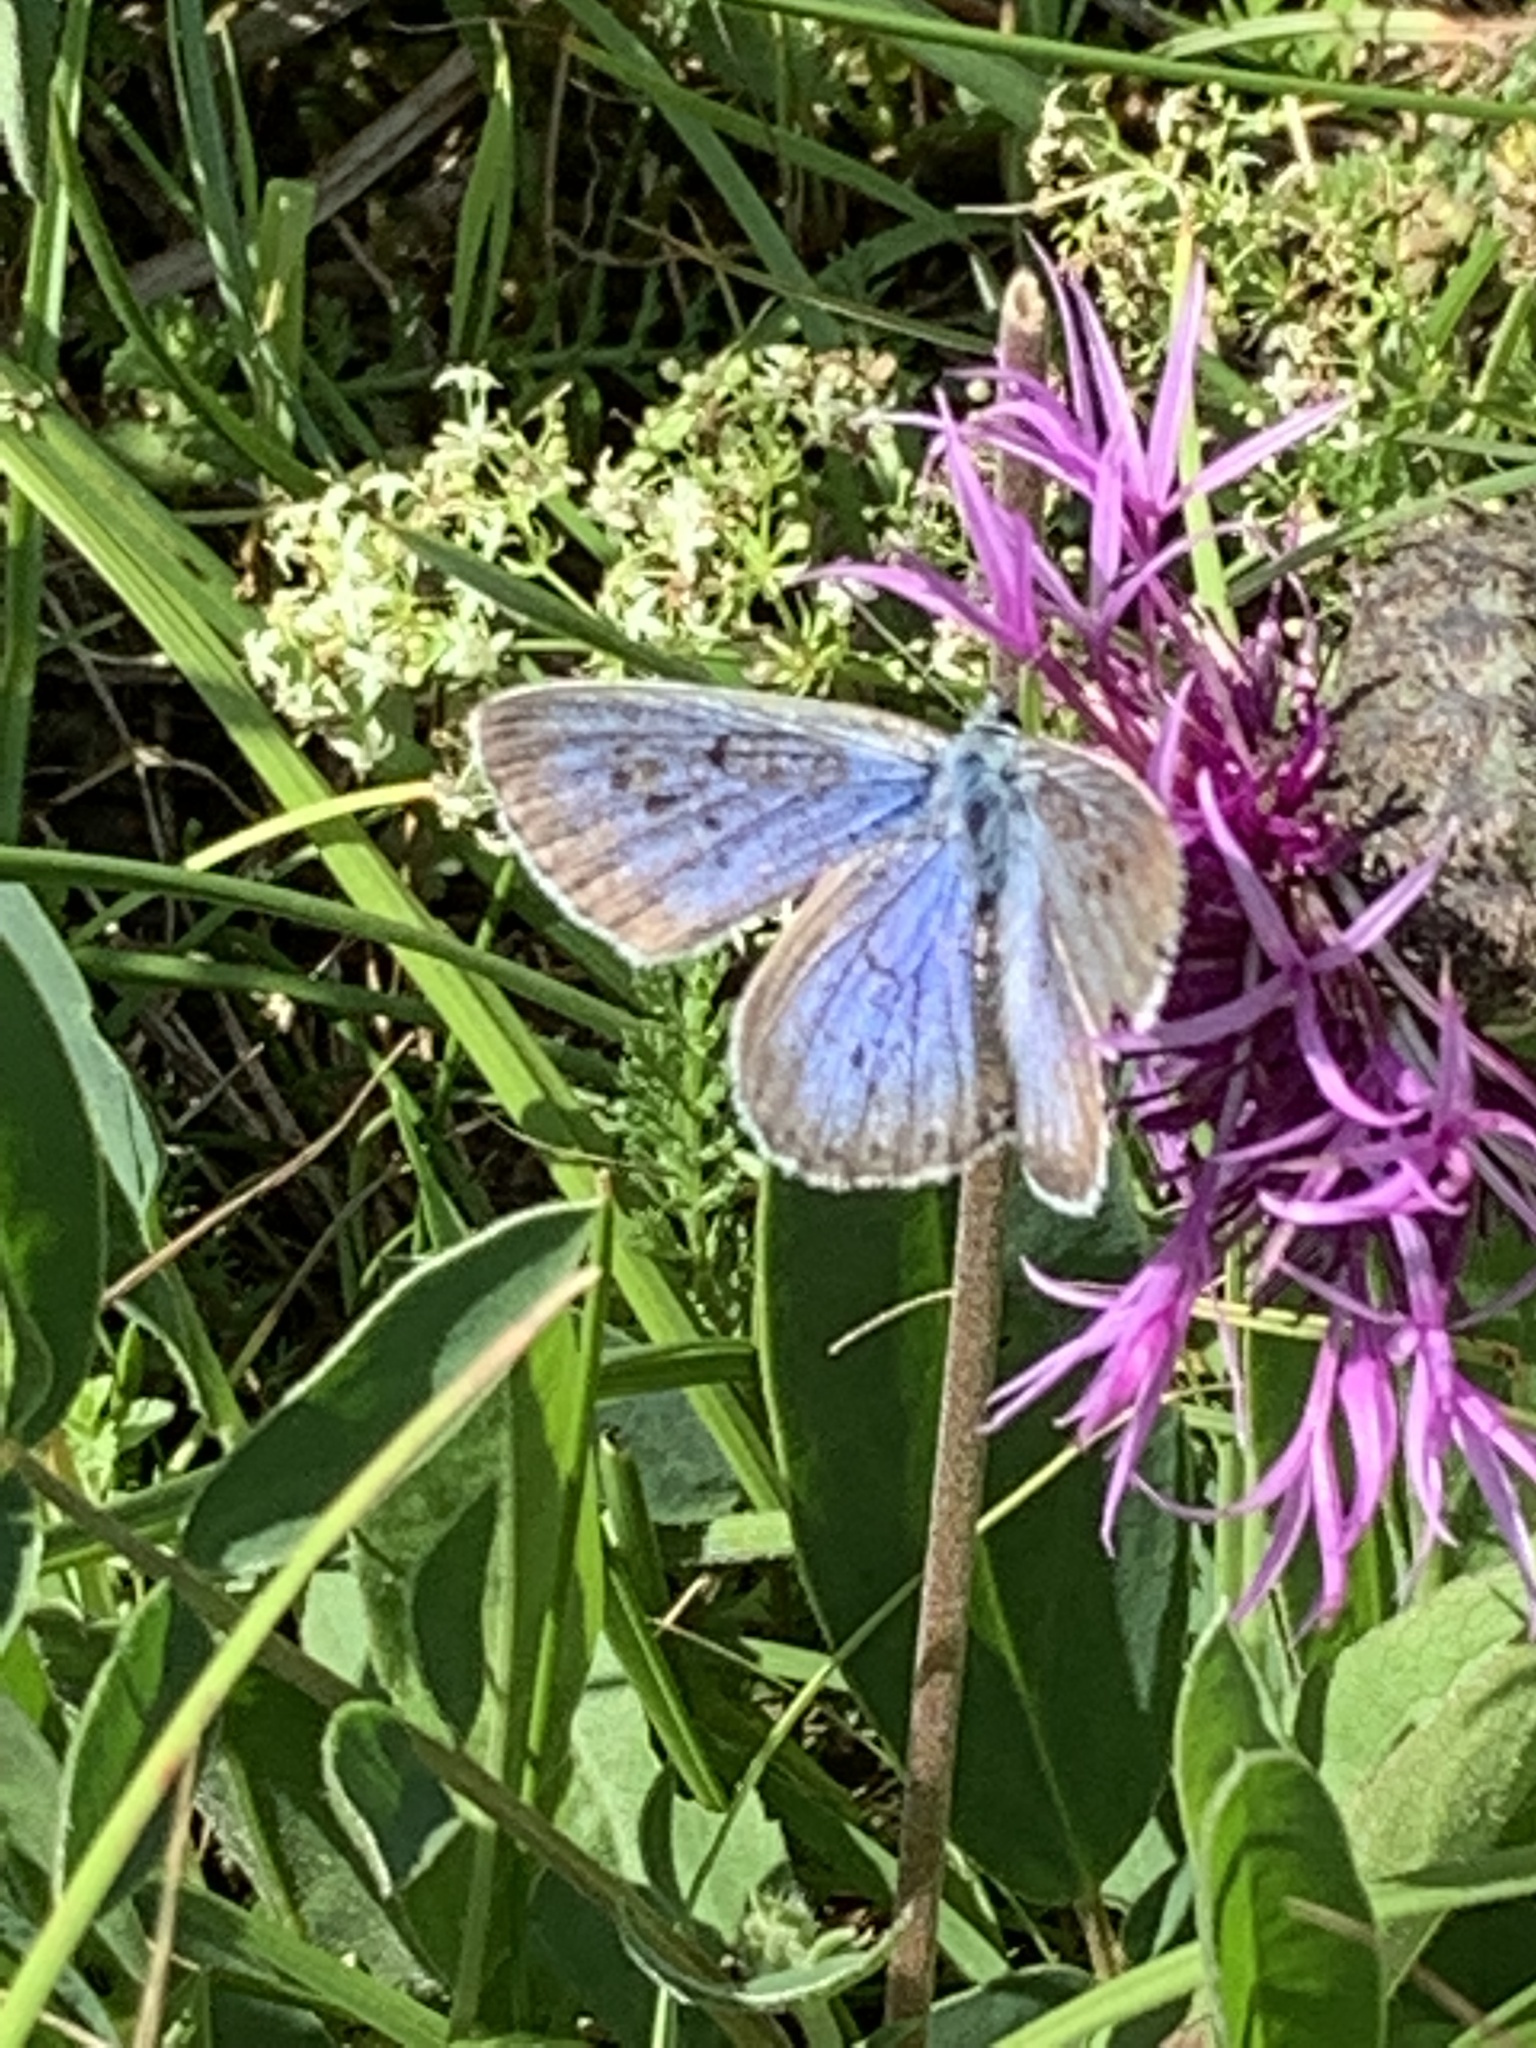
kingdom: Animalia
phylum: Arthropoda
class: Insecta
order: Lepidoptera
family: Lycaenidae
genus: Maculinea
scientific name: Maculinea arion
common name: Large blue
